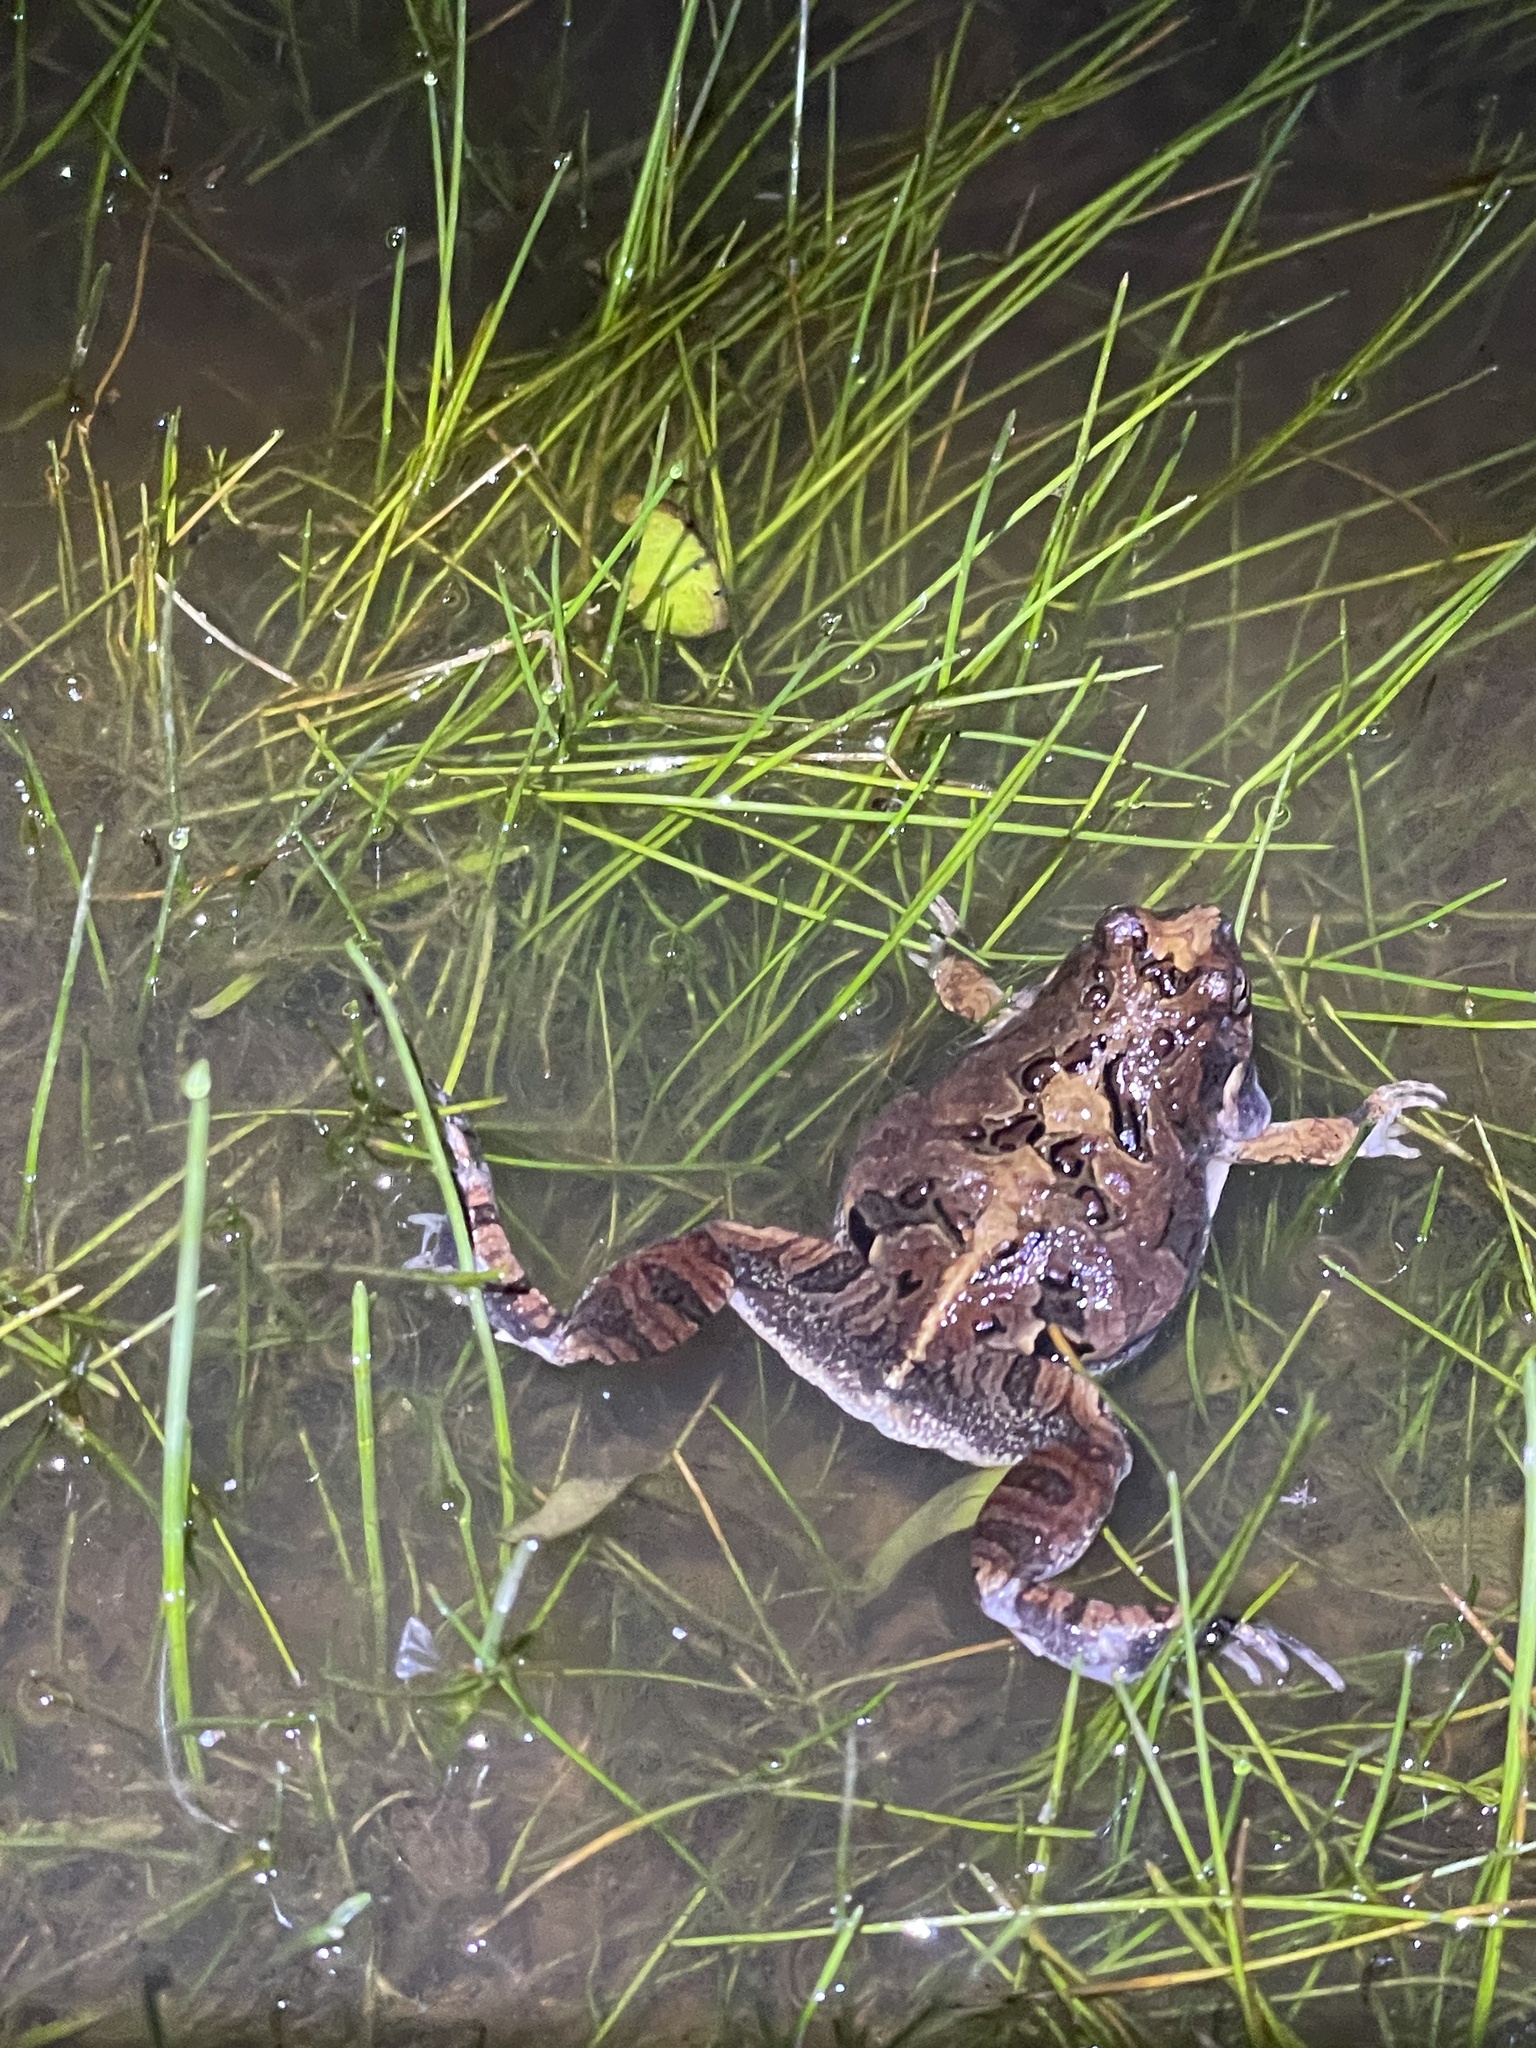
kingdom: Animalia
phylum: Chordata
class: Amphibia
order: Anura
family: Leptodactylidae
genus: Physalaemus
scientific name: Physalaemus biligonigerus
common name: Weeping frog
